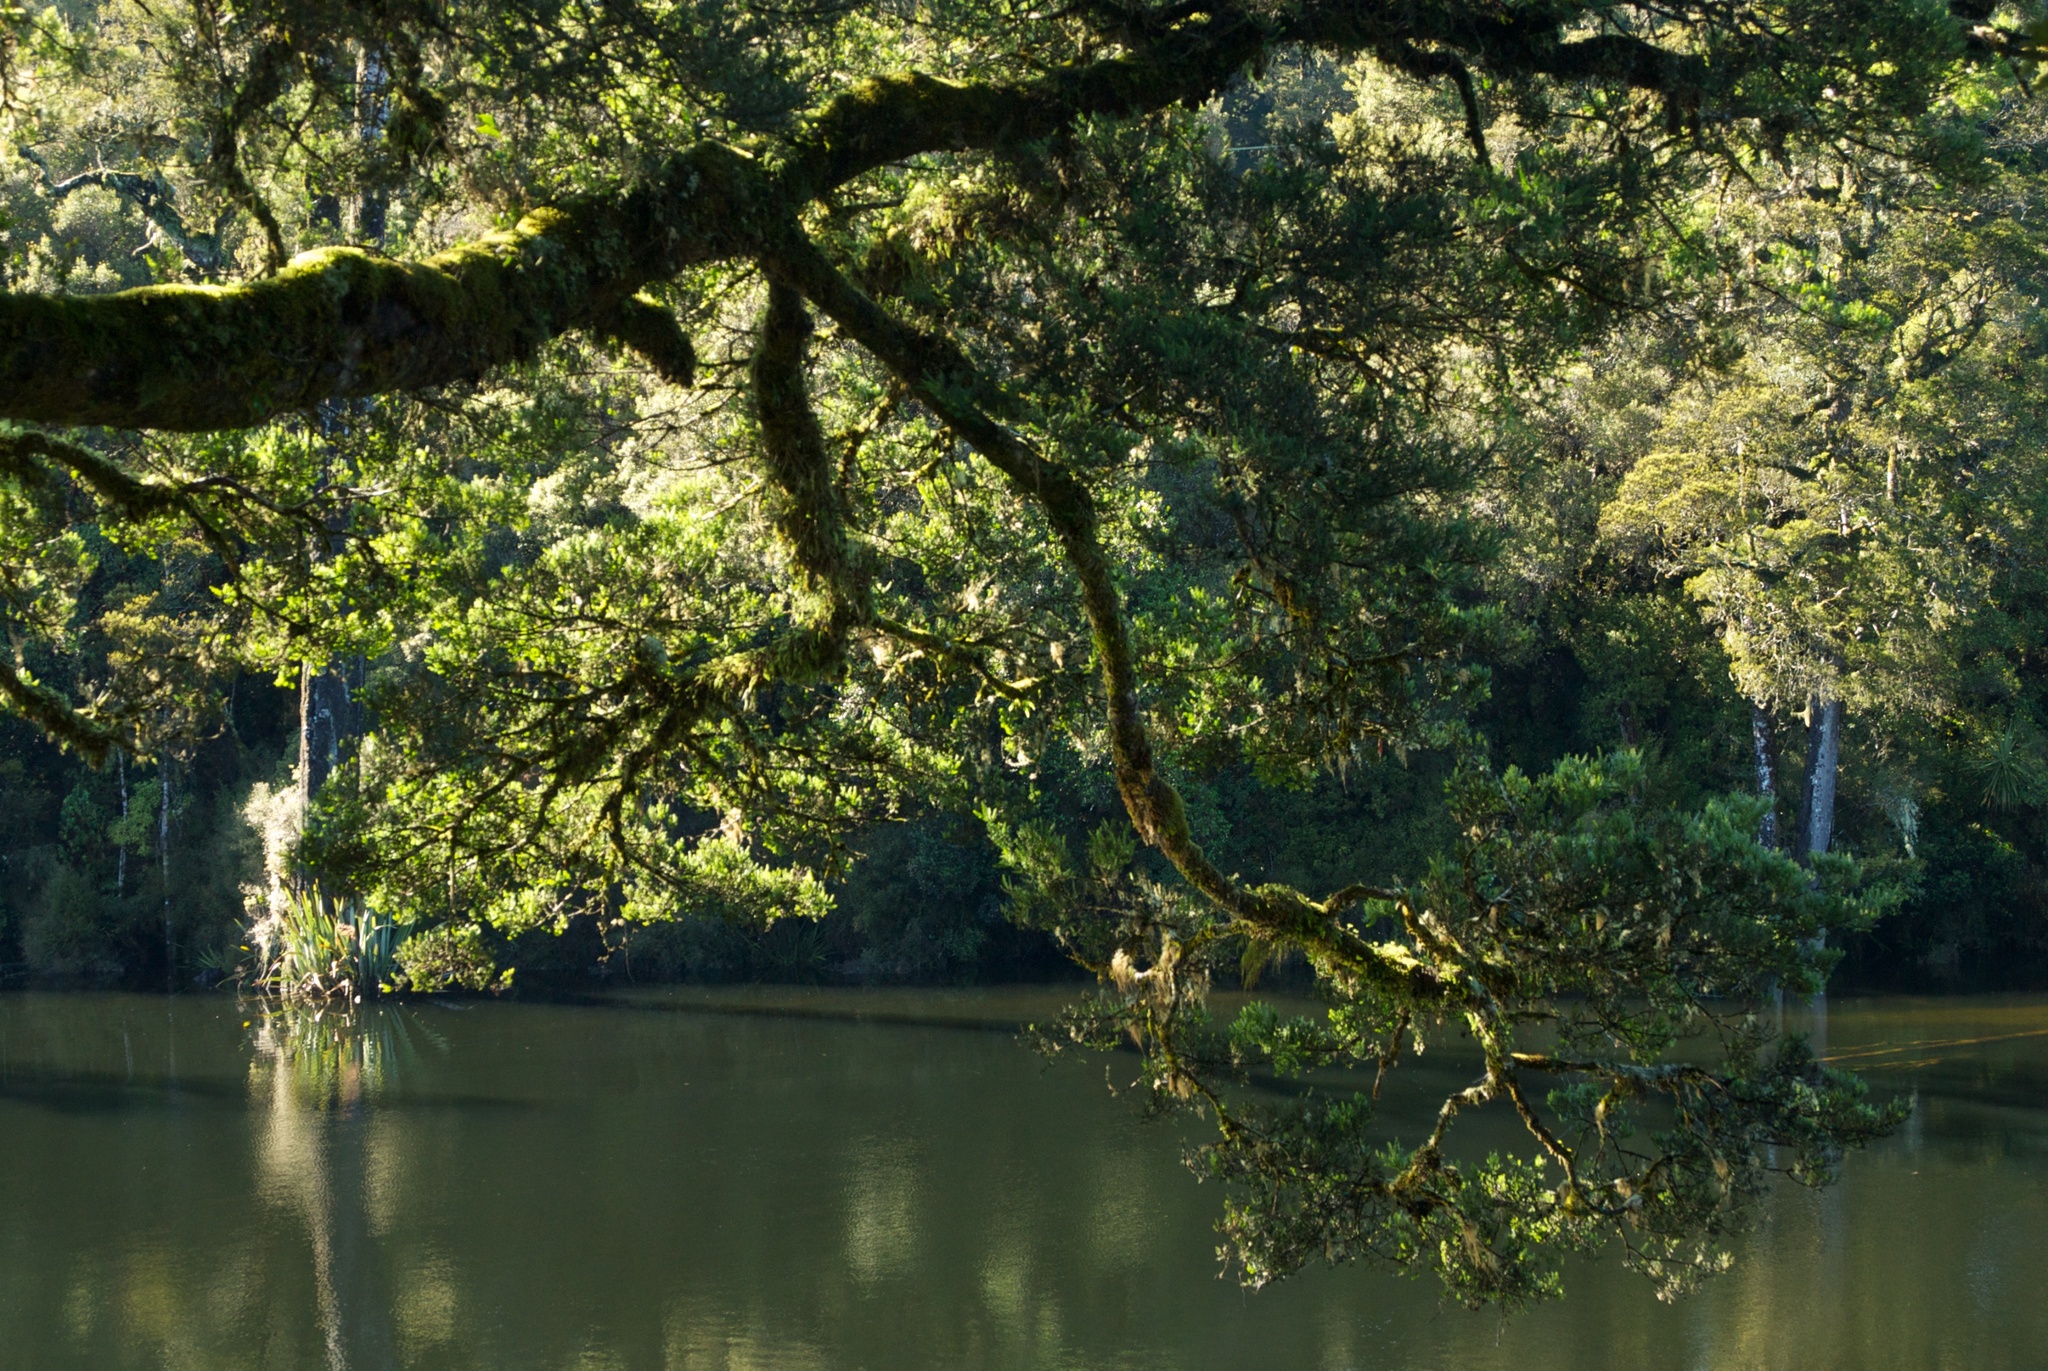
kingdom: Plantae
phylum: Tracheophyta
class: Pinopsida
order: Pinales
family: Podocarpaceae
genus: Prumnopitys
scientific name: Prumnopitys taxifolia
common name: Matai
